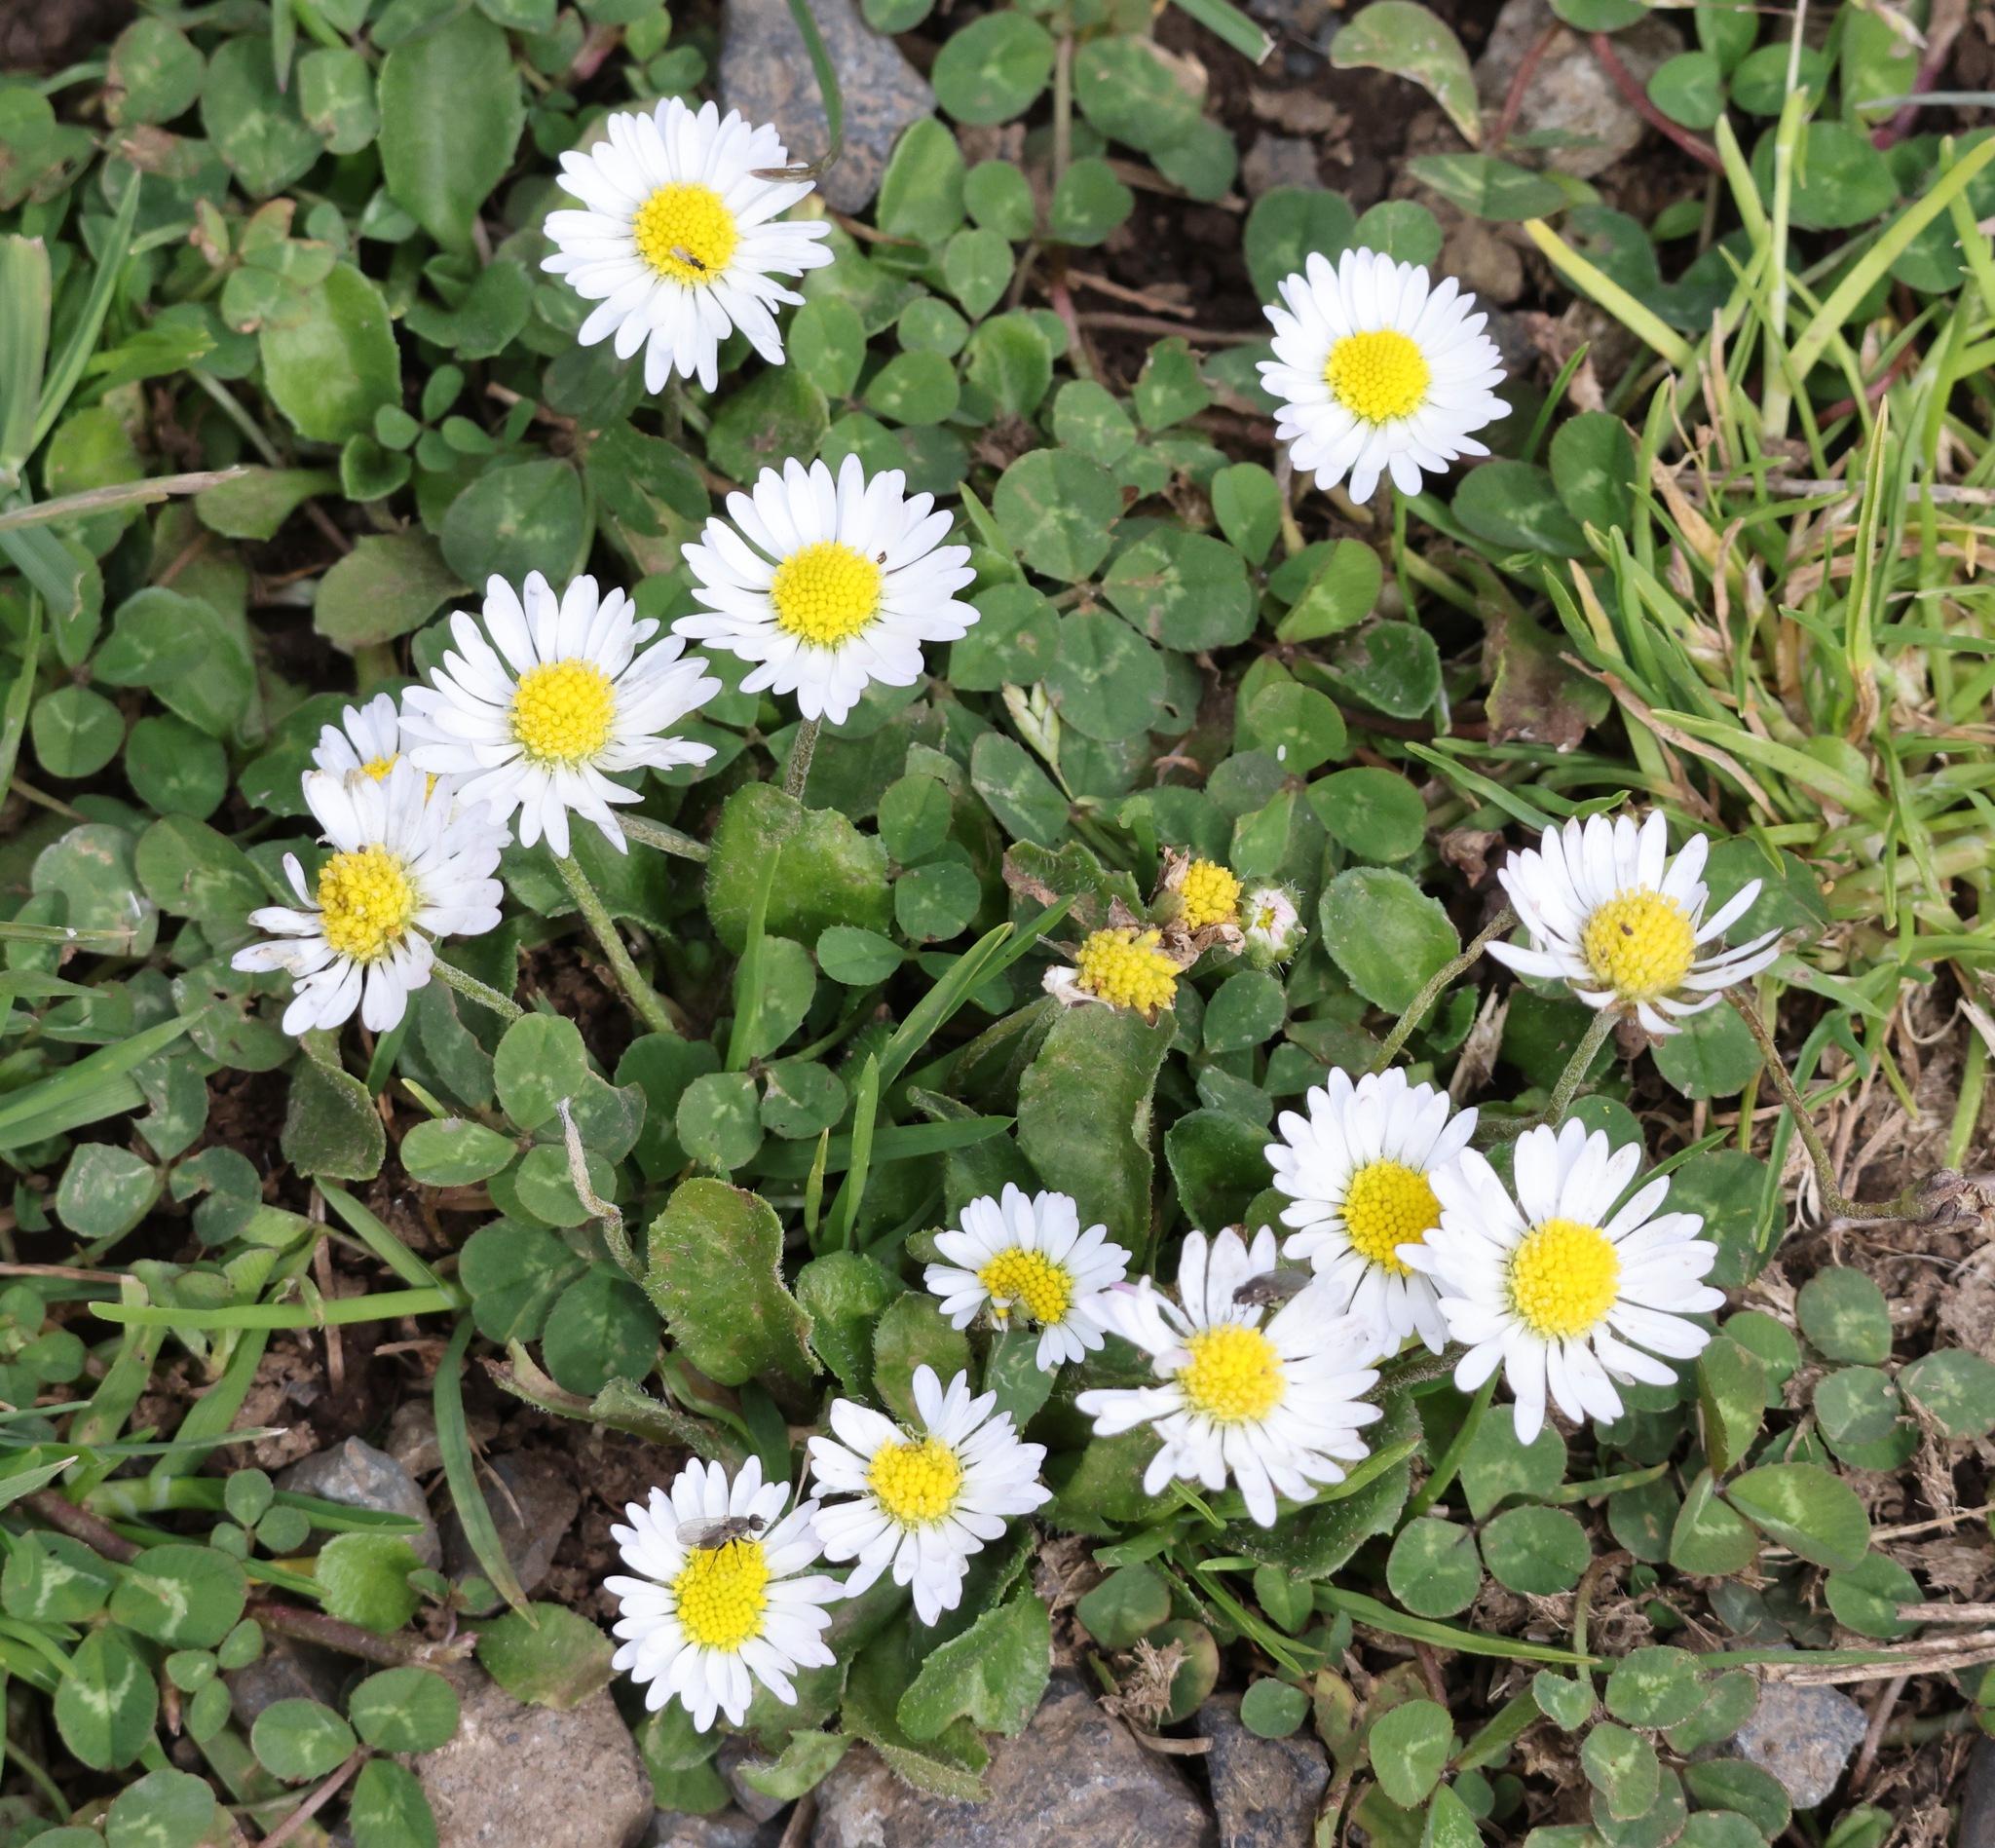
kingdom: Plantae
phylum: Tracheophyta
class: Magnoliopsida
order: Asterales
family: Asteraceae
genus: Bellis
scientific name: Bellis perennis
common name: Lawndaisy
